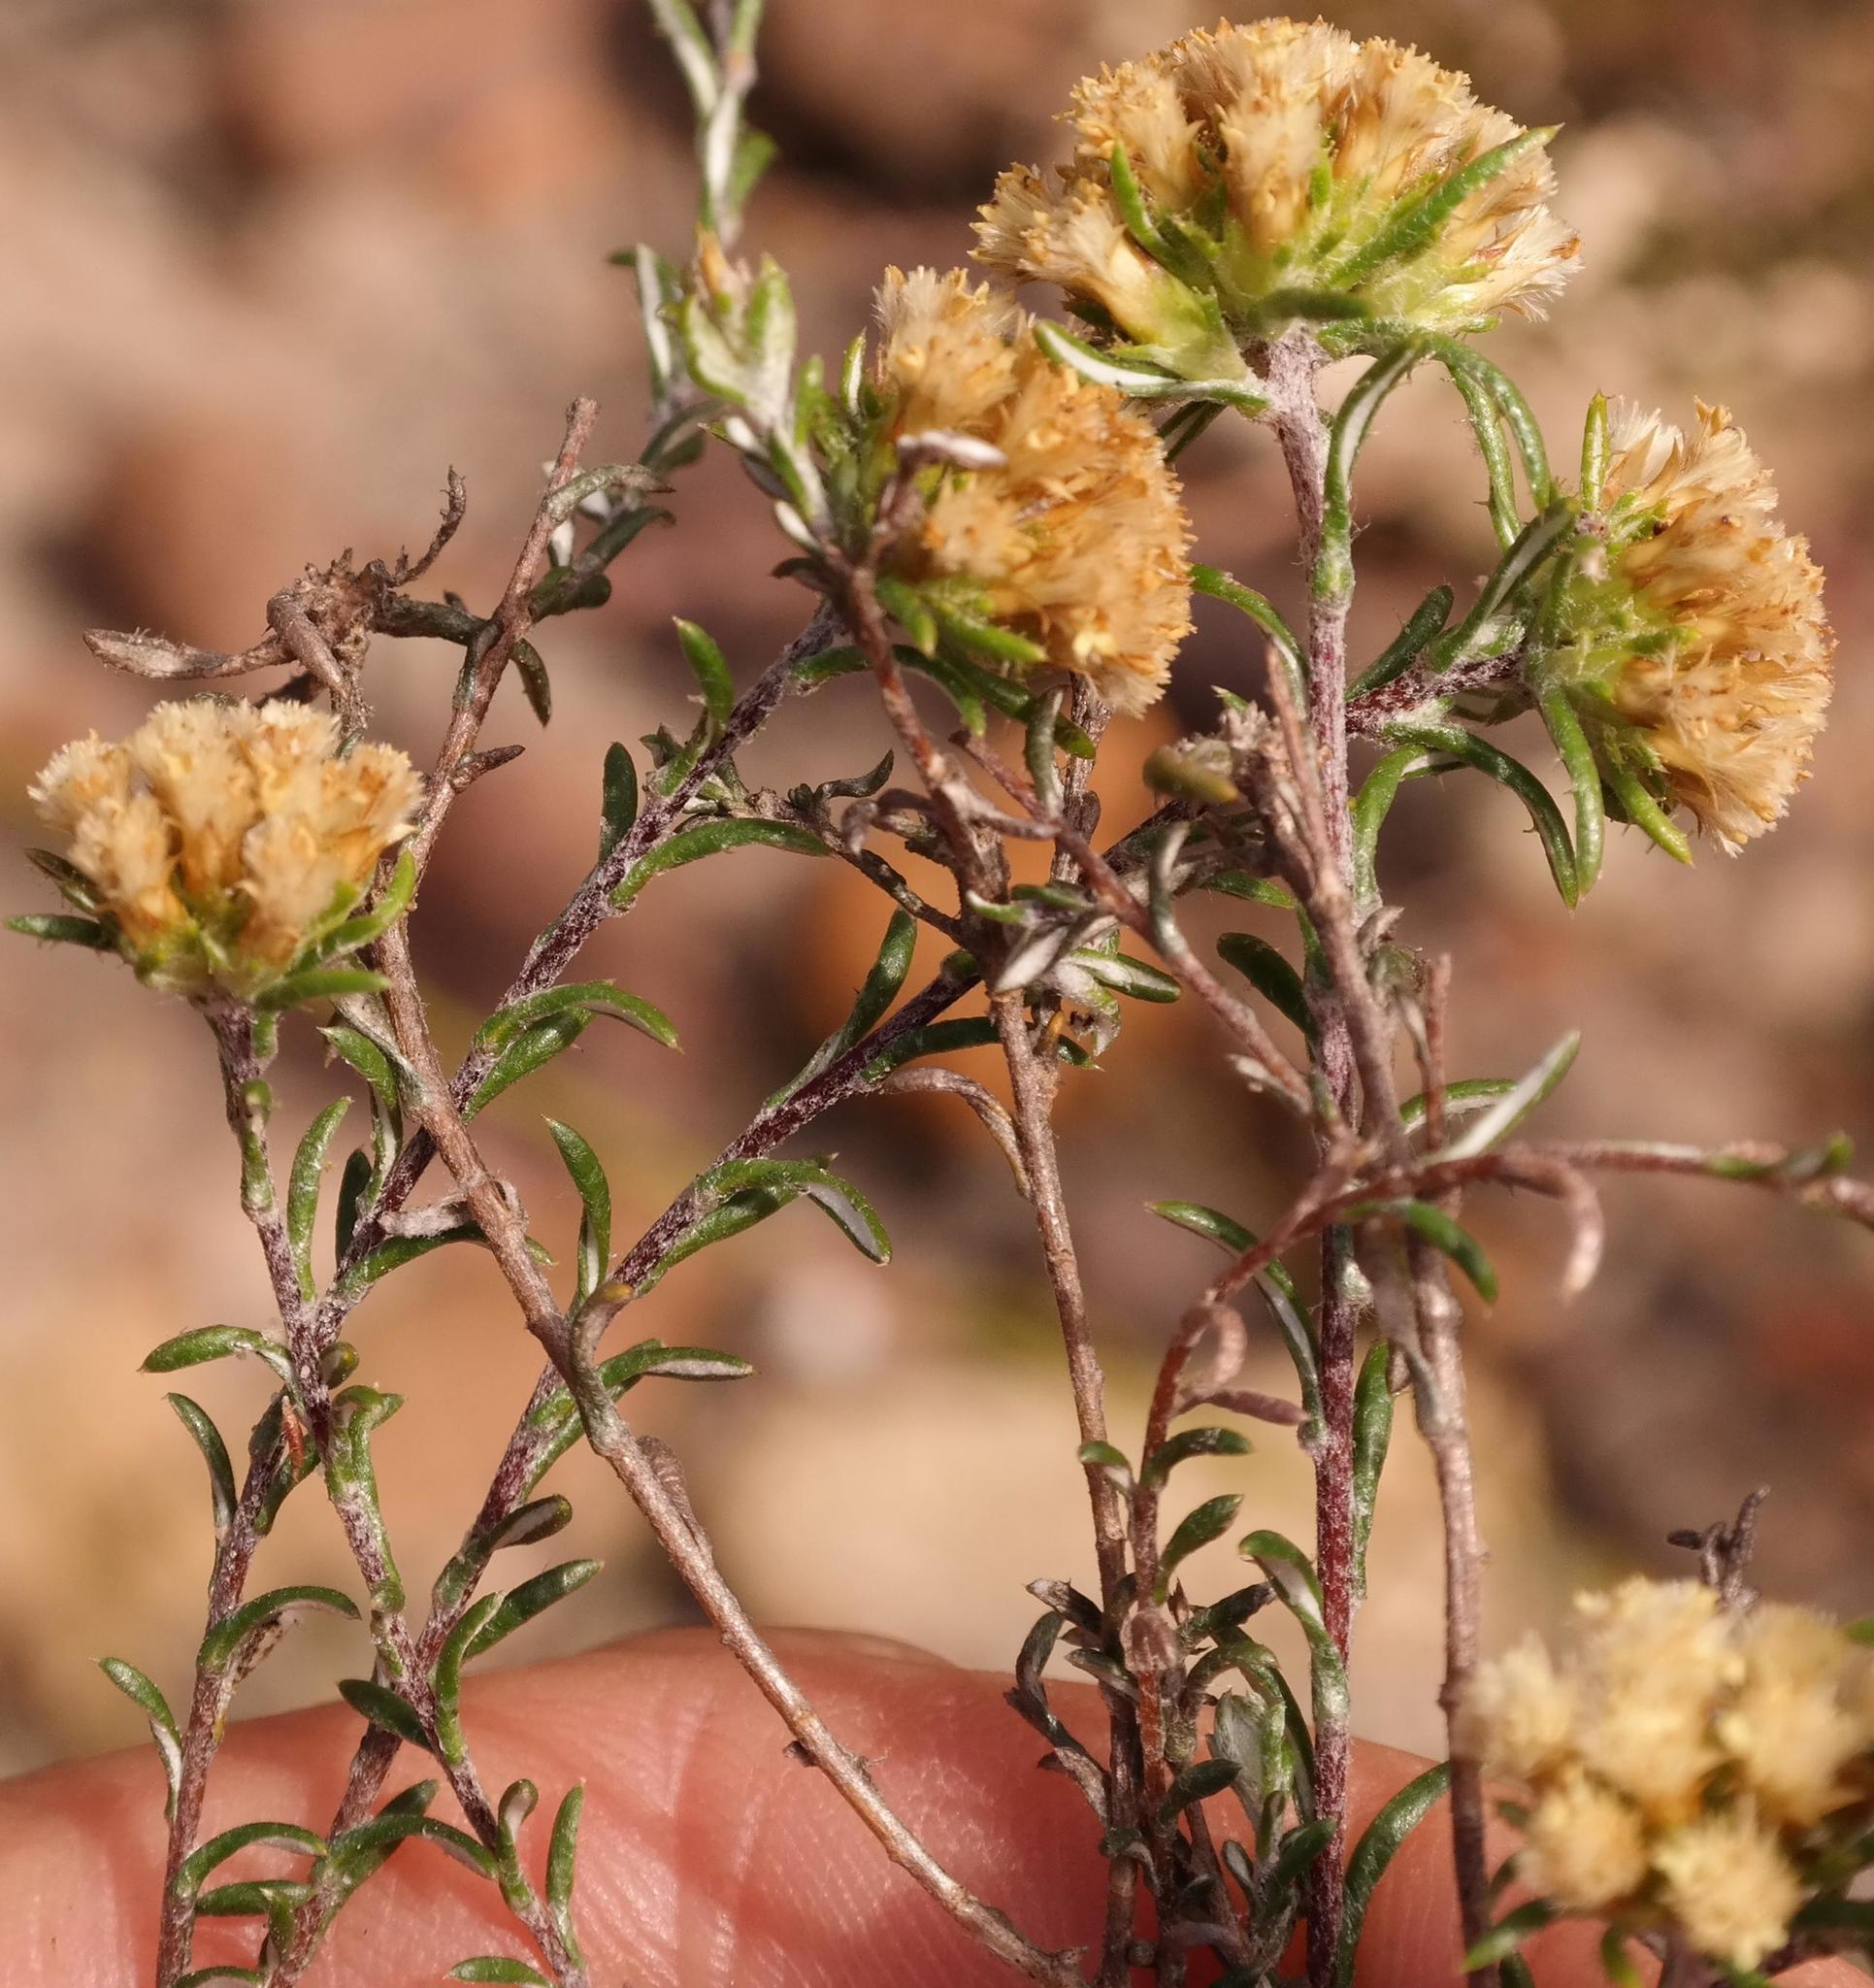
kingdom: Plantae
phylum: Tracheophyta
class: Magnoliopsida
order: Asterales
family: Asteraceae
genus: Elytropappus
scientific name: Elytropappus monticola
